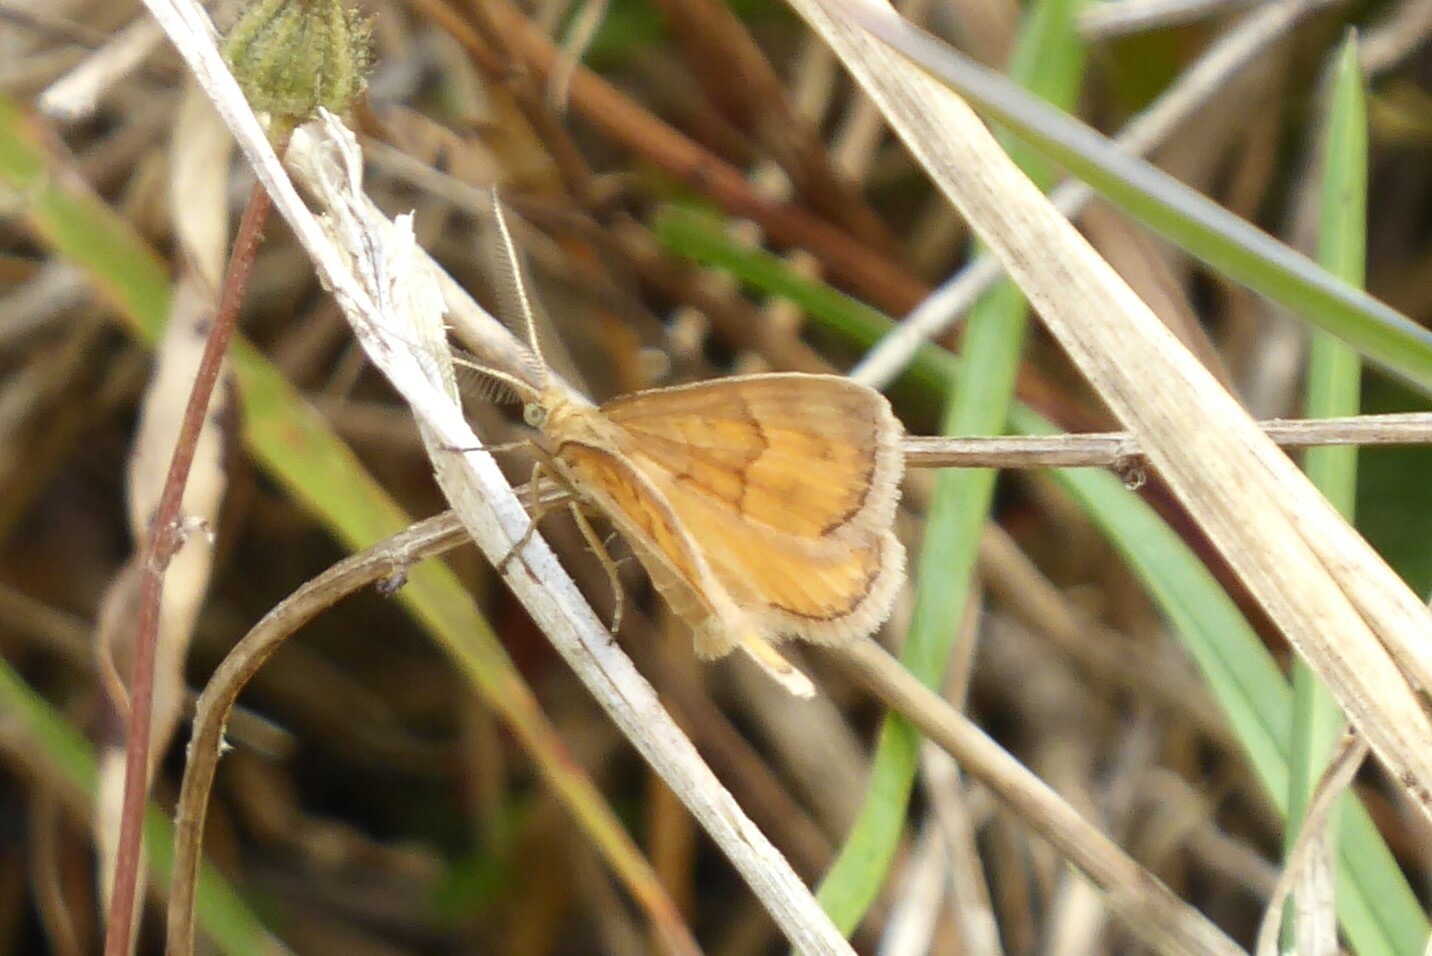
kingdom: Animalia
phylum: Arthropoda
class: Insecta
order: Lepidoptera
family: Geometridae
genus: Asaphodes
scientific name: Asaphodes abrogata
